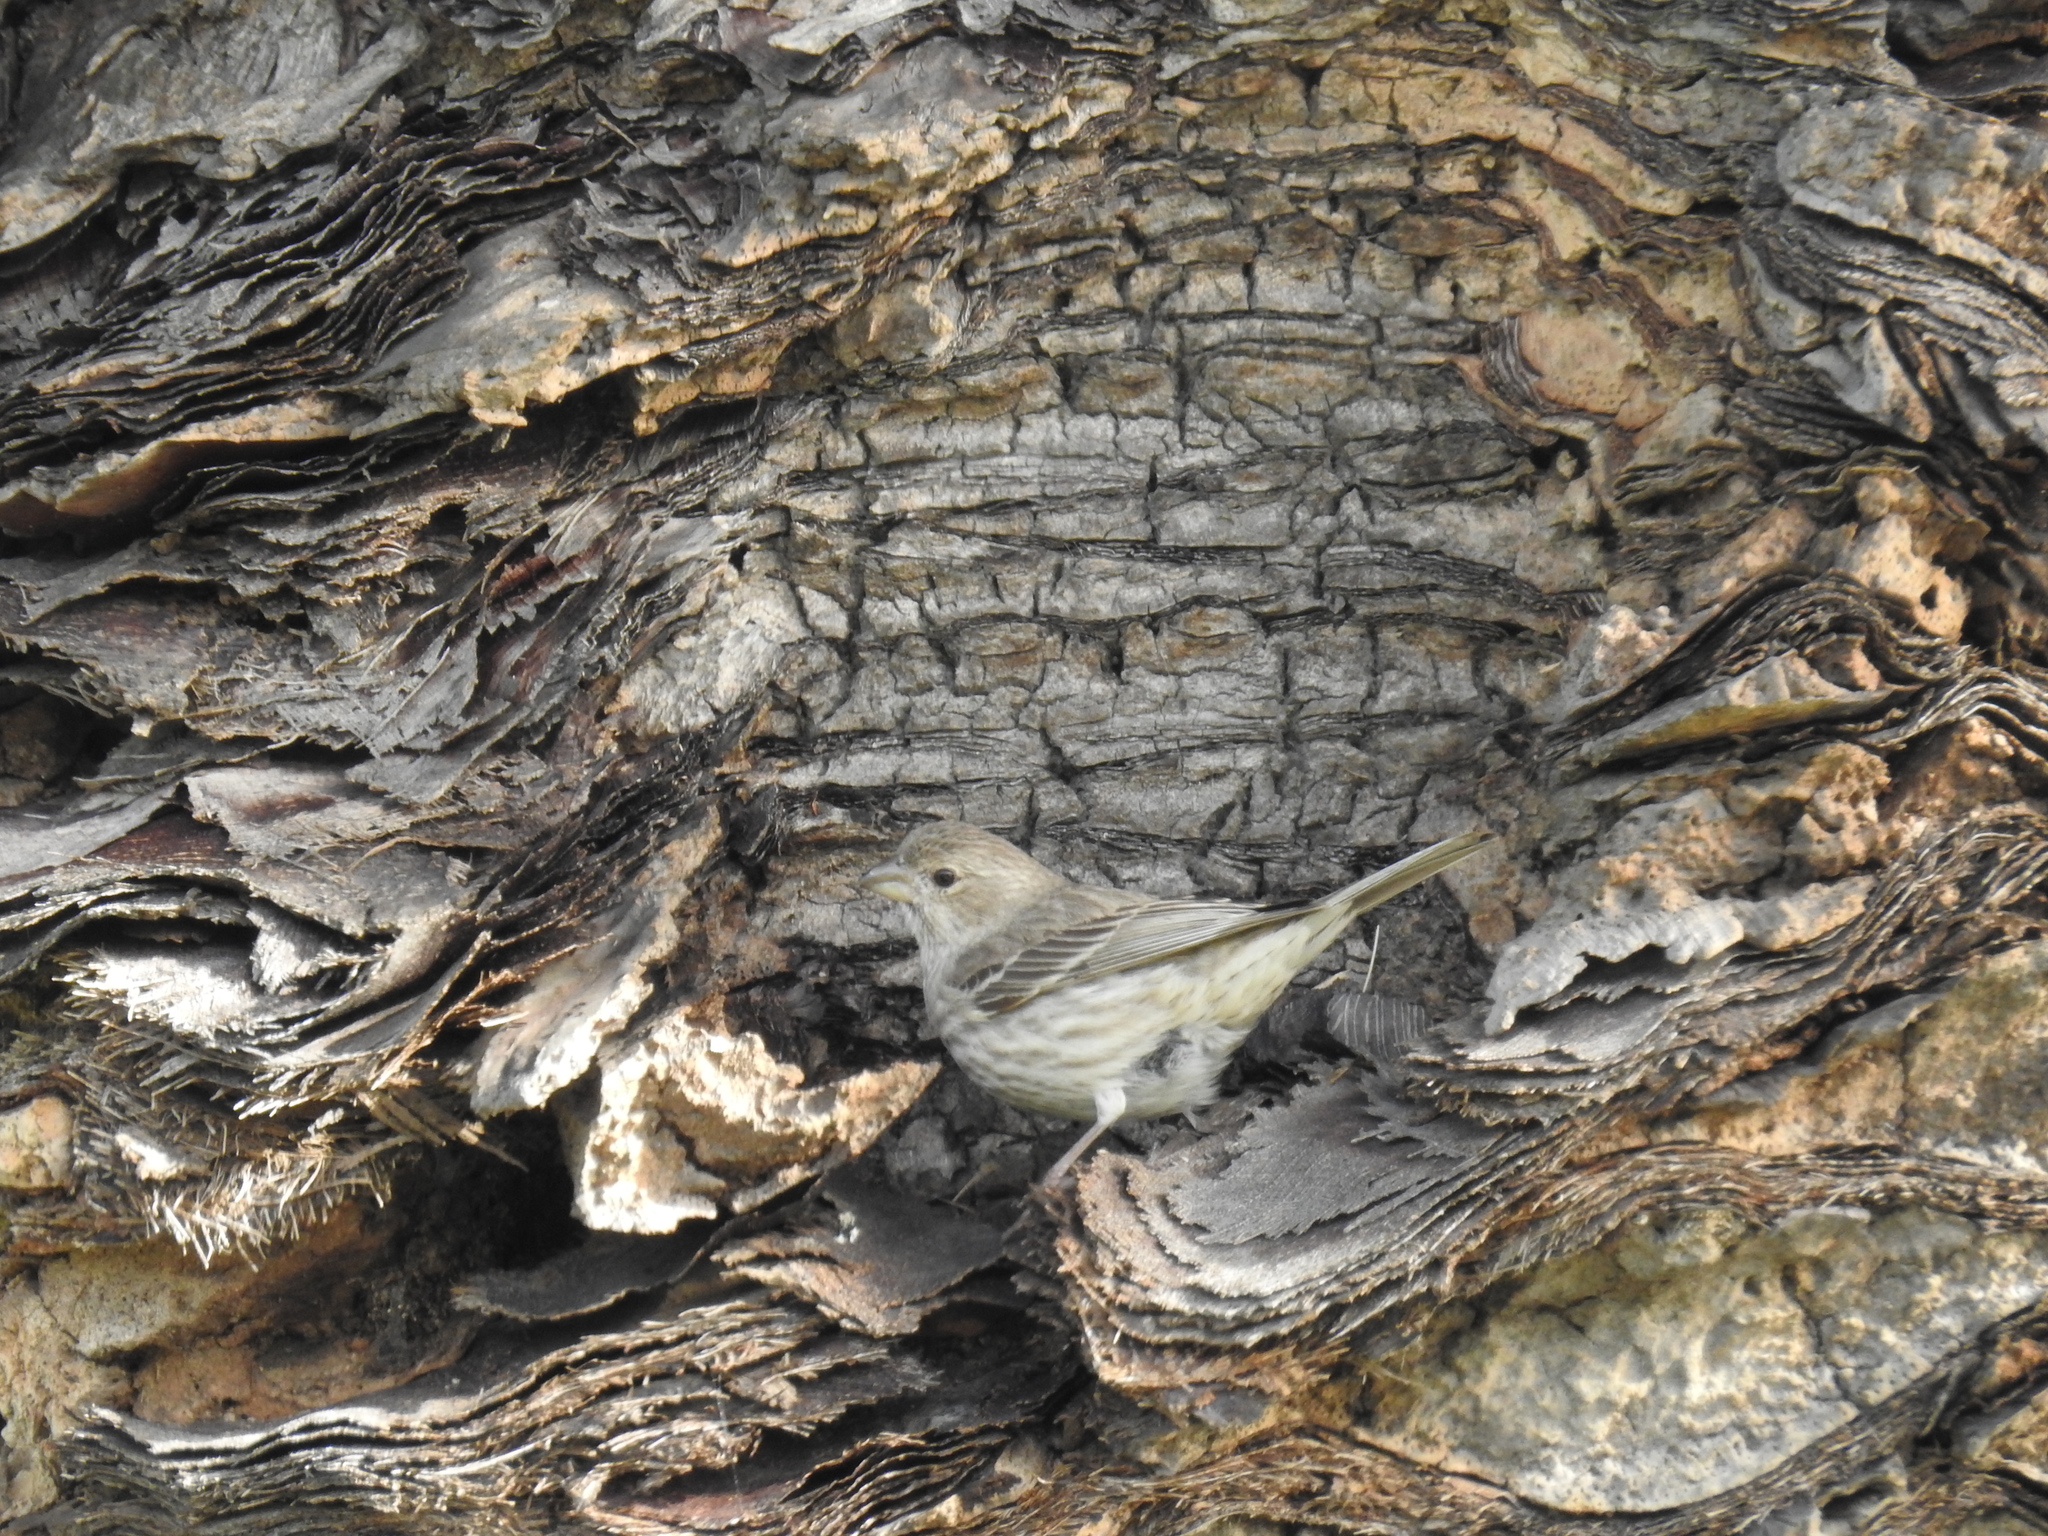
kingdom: Animalia
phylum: Chordata
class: Aves
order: Passeriformes
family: Fringillidae
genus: Haemorhous
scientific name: Haemorhous mexicanus
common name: House finch
